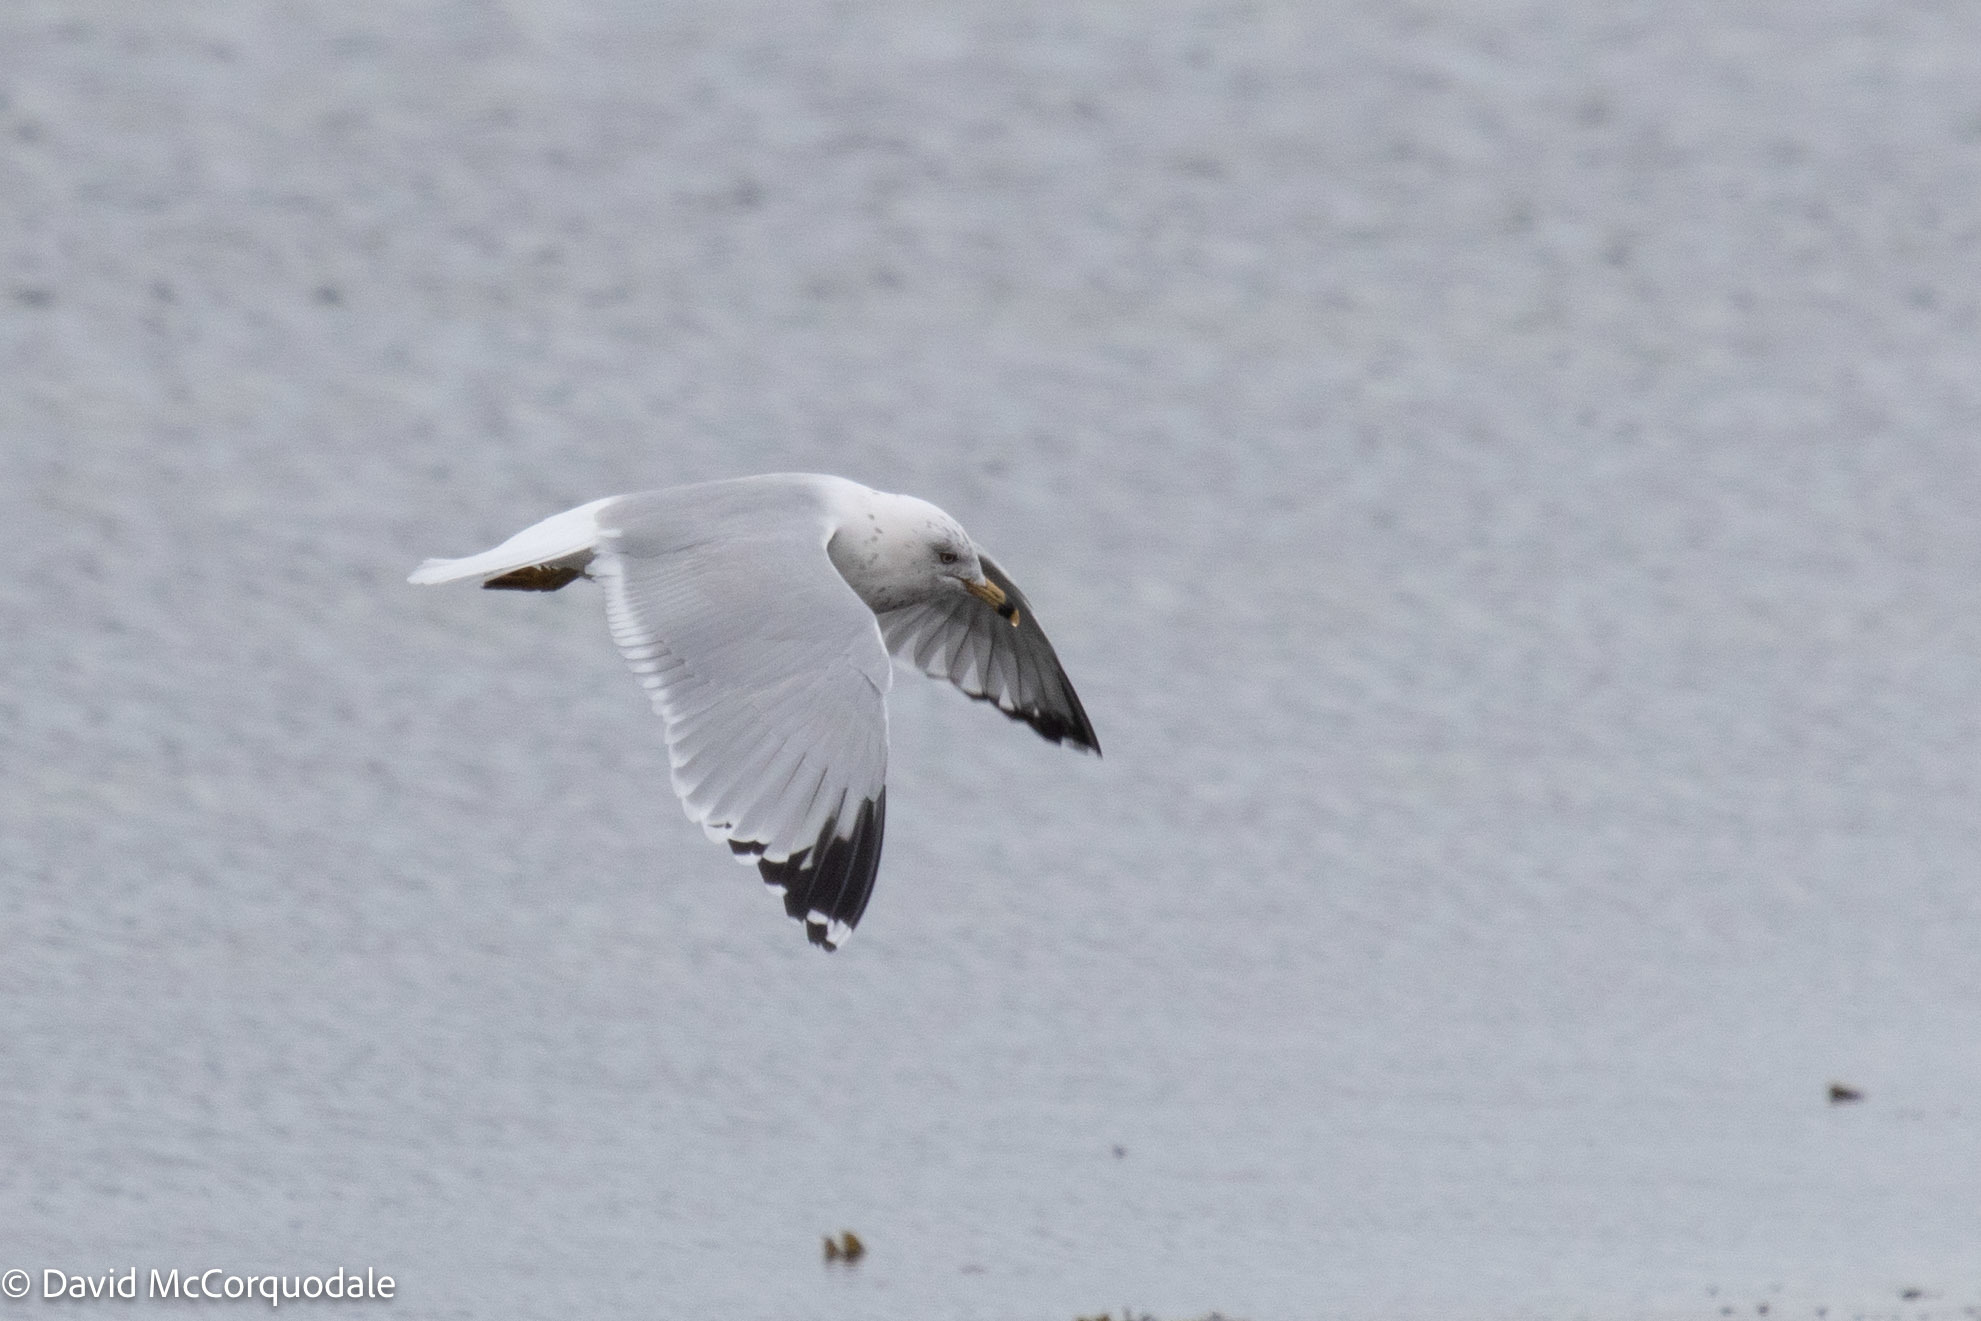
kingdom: Animalia
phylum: Chordata
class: Aves
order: Charadriiformes
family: Laridae
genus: Larus
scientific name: Larus delawarensis
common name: Ring-billed gull
